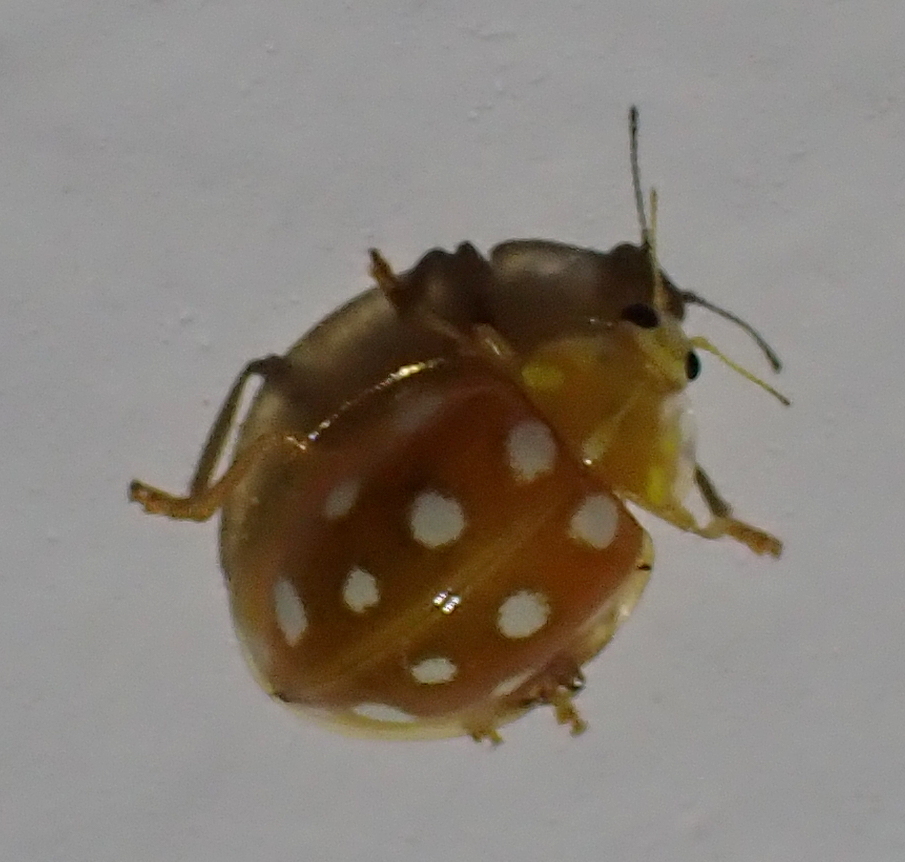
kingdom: Animalia
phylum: Arthropoda
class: Insecta
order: Coleoptera
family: Coccinellidae
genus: Halyzia
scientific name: Halyzia sedecimguttata
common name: Orange ladybird
